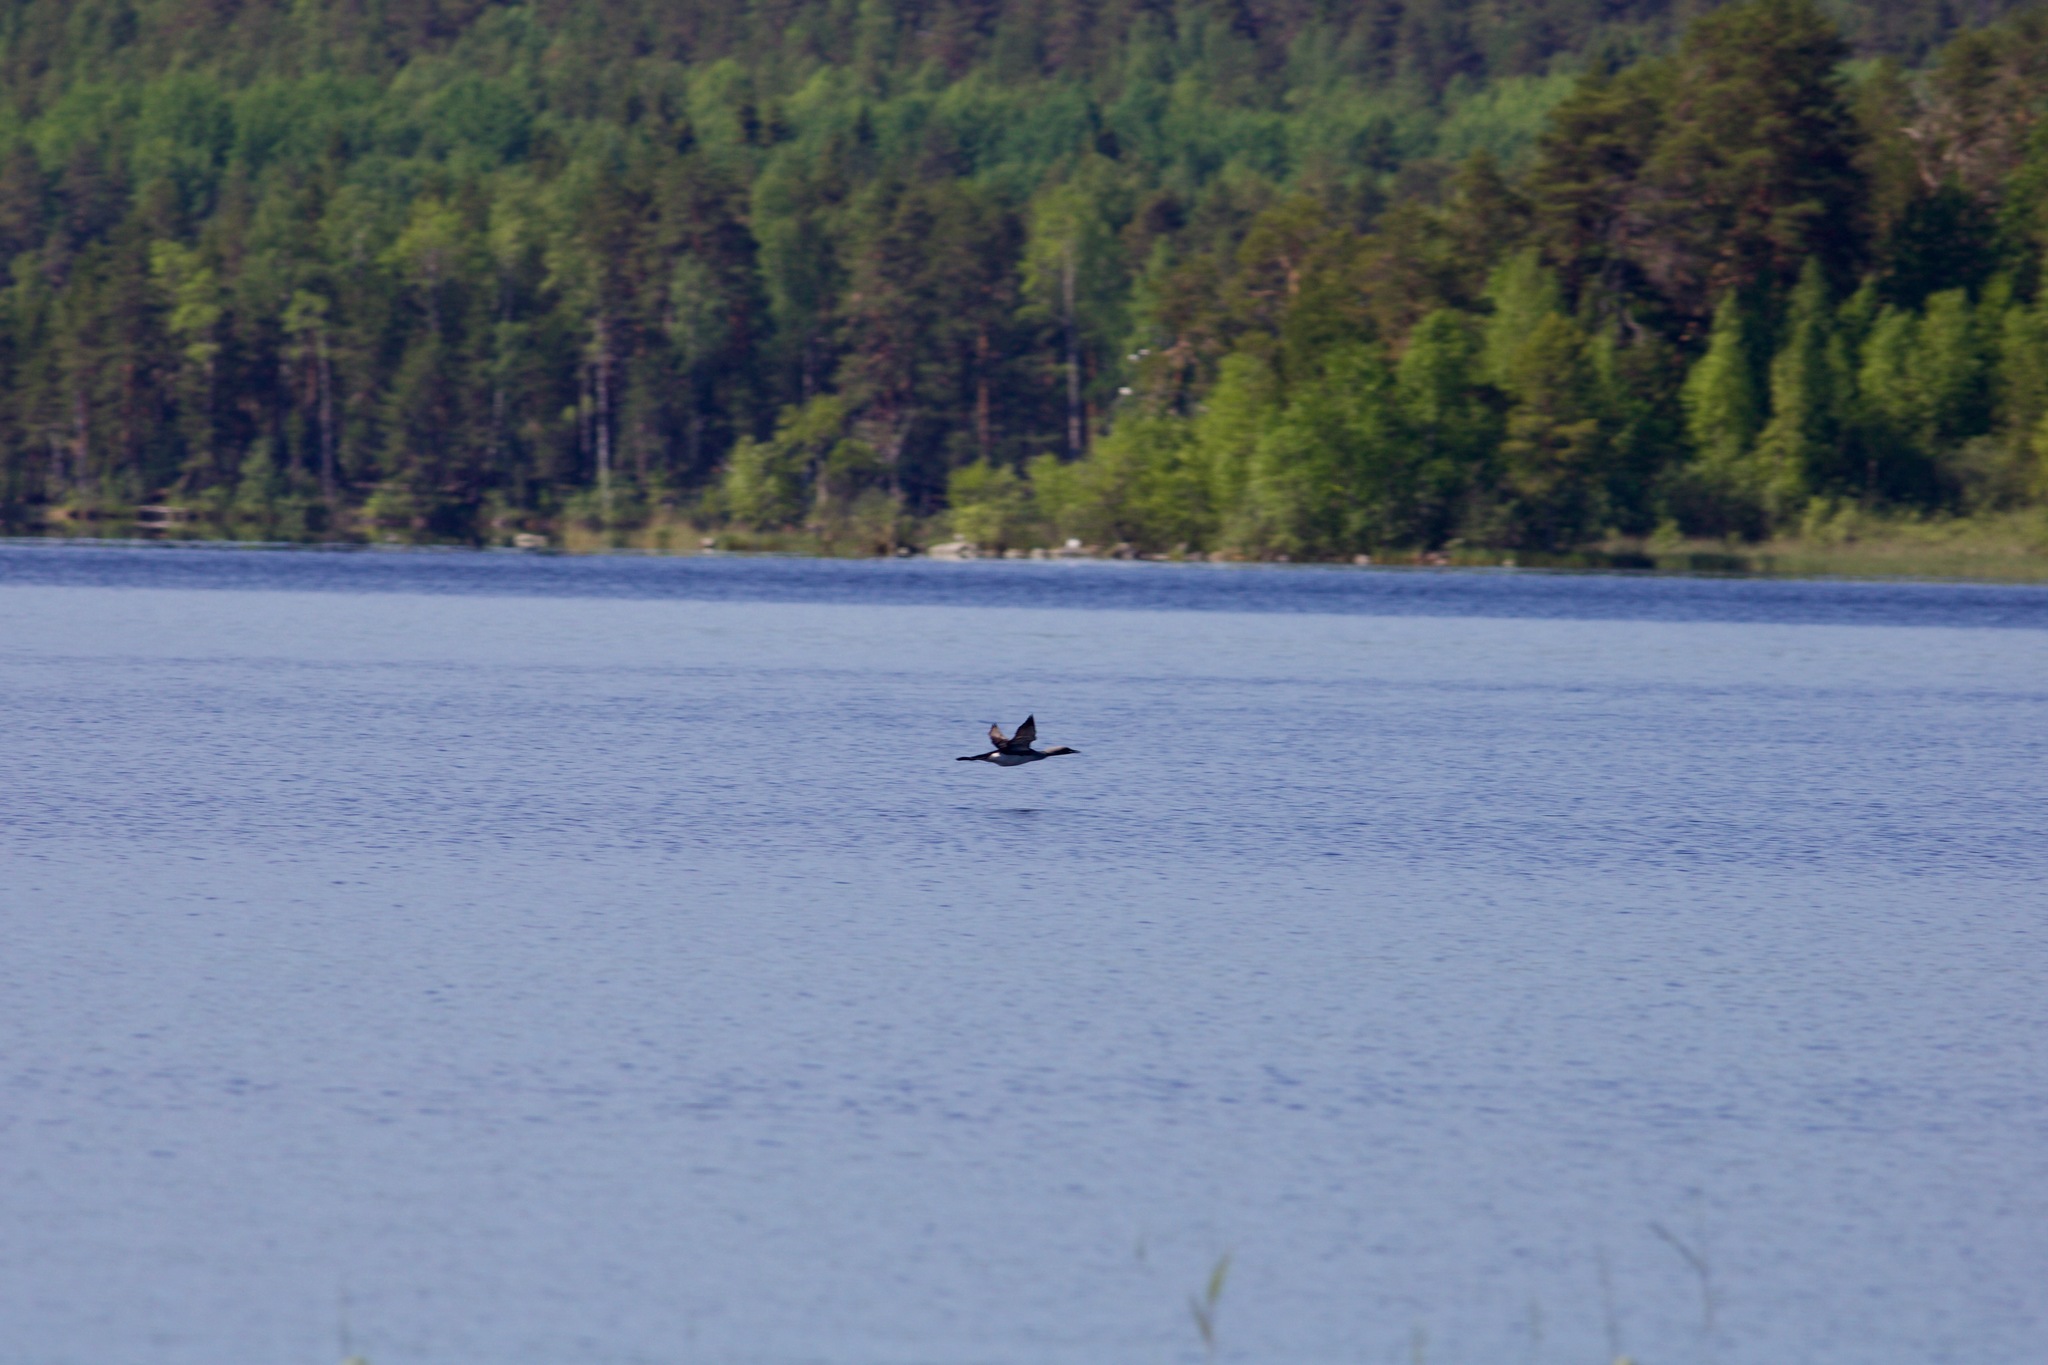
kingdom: Animalia
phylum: Chordata
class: Aves
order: Gaviiformes
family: Gaviidae
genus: Gavia
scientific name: Gavia arctica
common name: Black-throated loon
